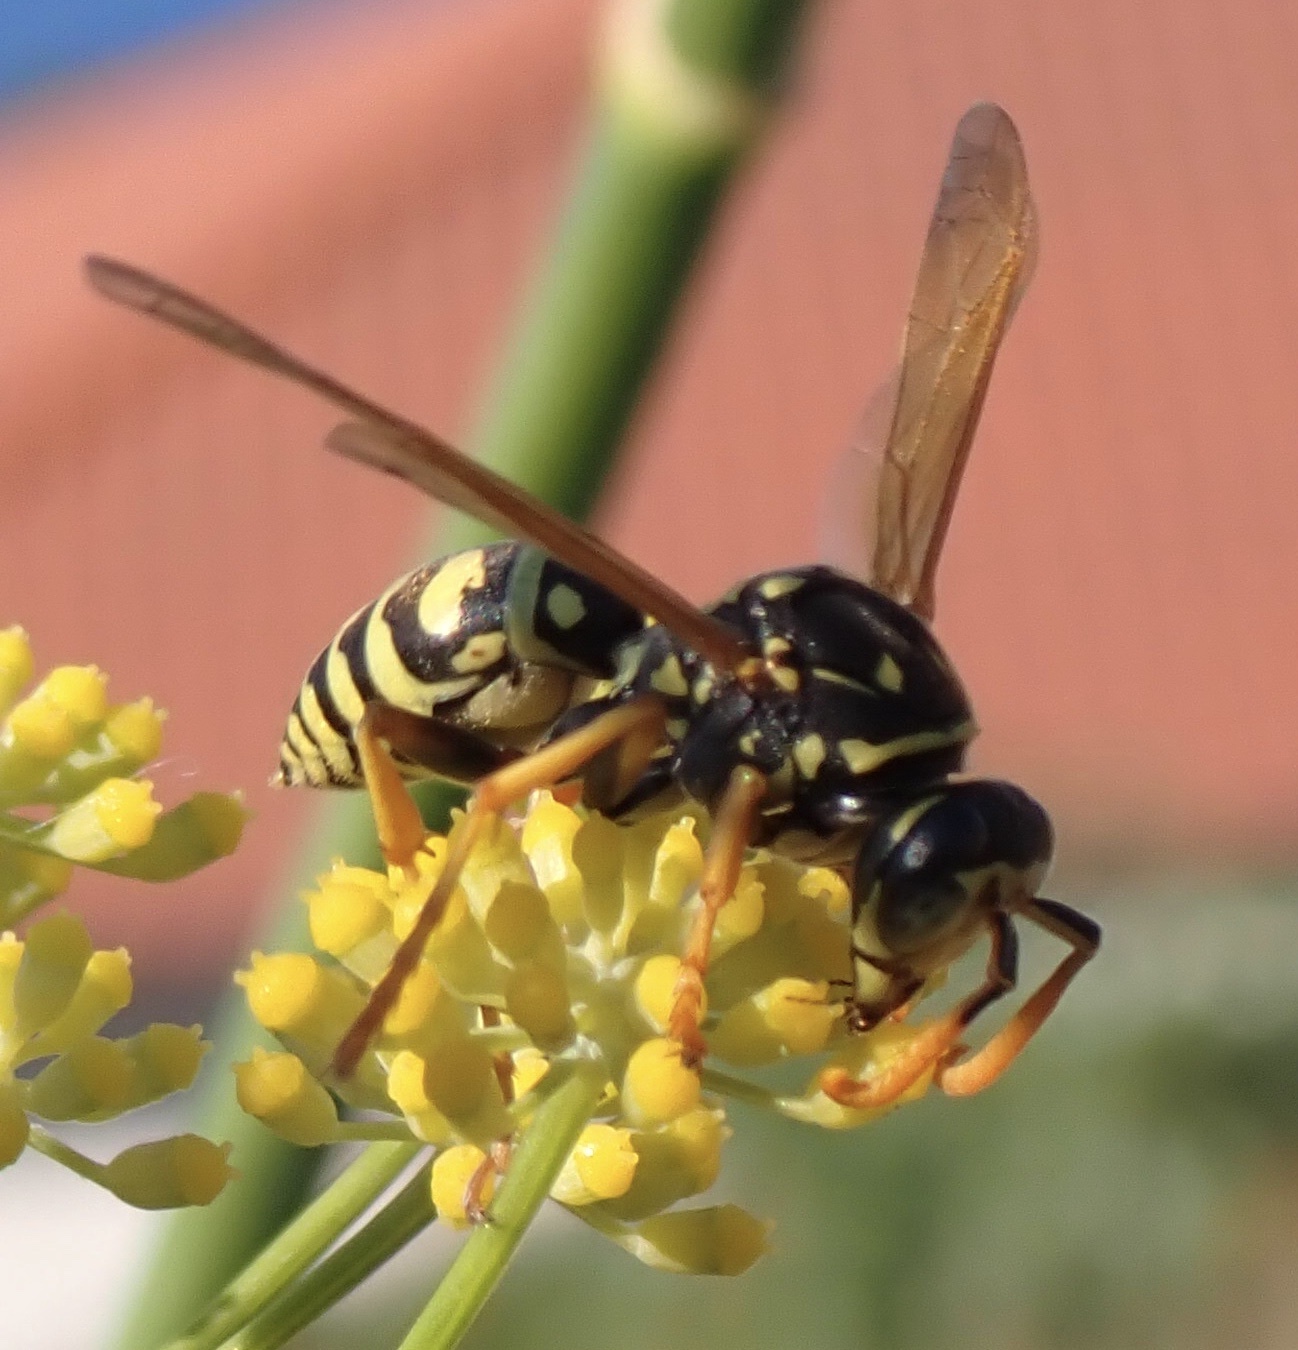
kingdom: Animalia
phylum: Arthropoda
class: Insecta
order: Hymenoptera
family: Eumenidae
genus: Polistes
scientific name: Polistes dominula
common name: Paper wasp
